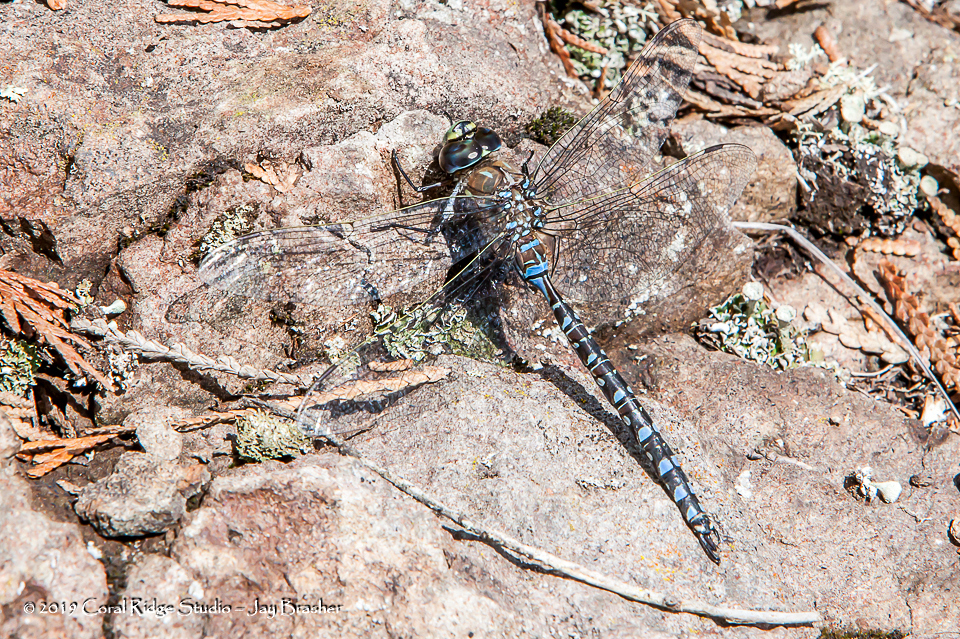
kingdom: Animalia
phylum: Arthropoda
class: Insecta
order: Odonata
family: Aeshnidae
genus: Aeshna
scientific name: Aeshna interrupta
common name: Variable darner
